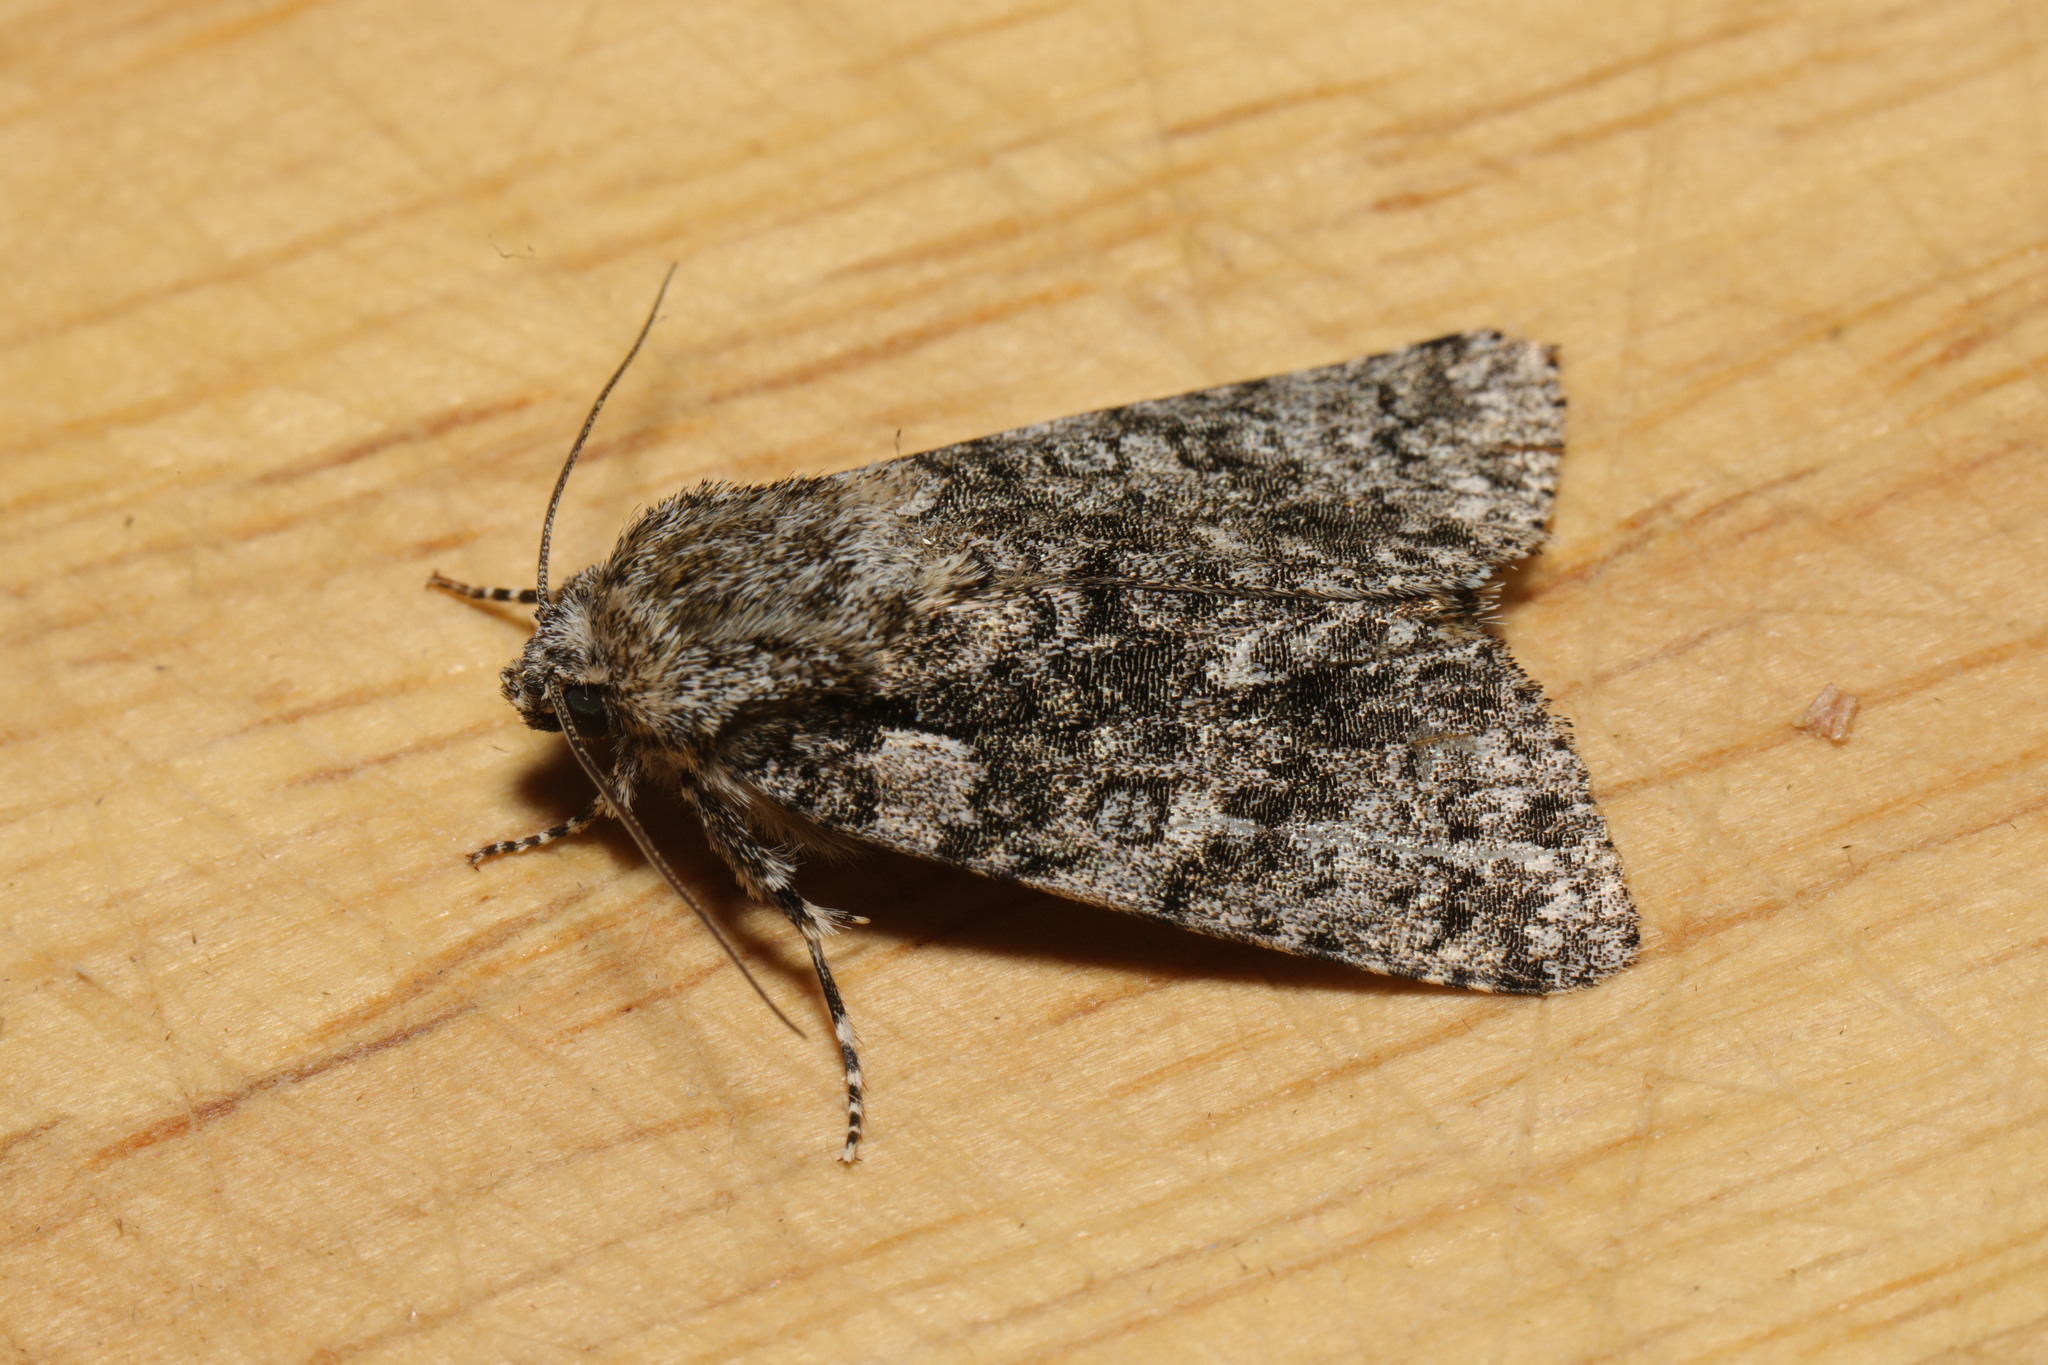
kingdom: Animalia
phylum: Arthropoda
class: Insecta
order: Lepidoptera
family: Noctuidae
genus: Acronicta
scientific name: Acronicta rumicis
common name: Knot grass
